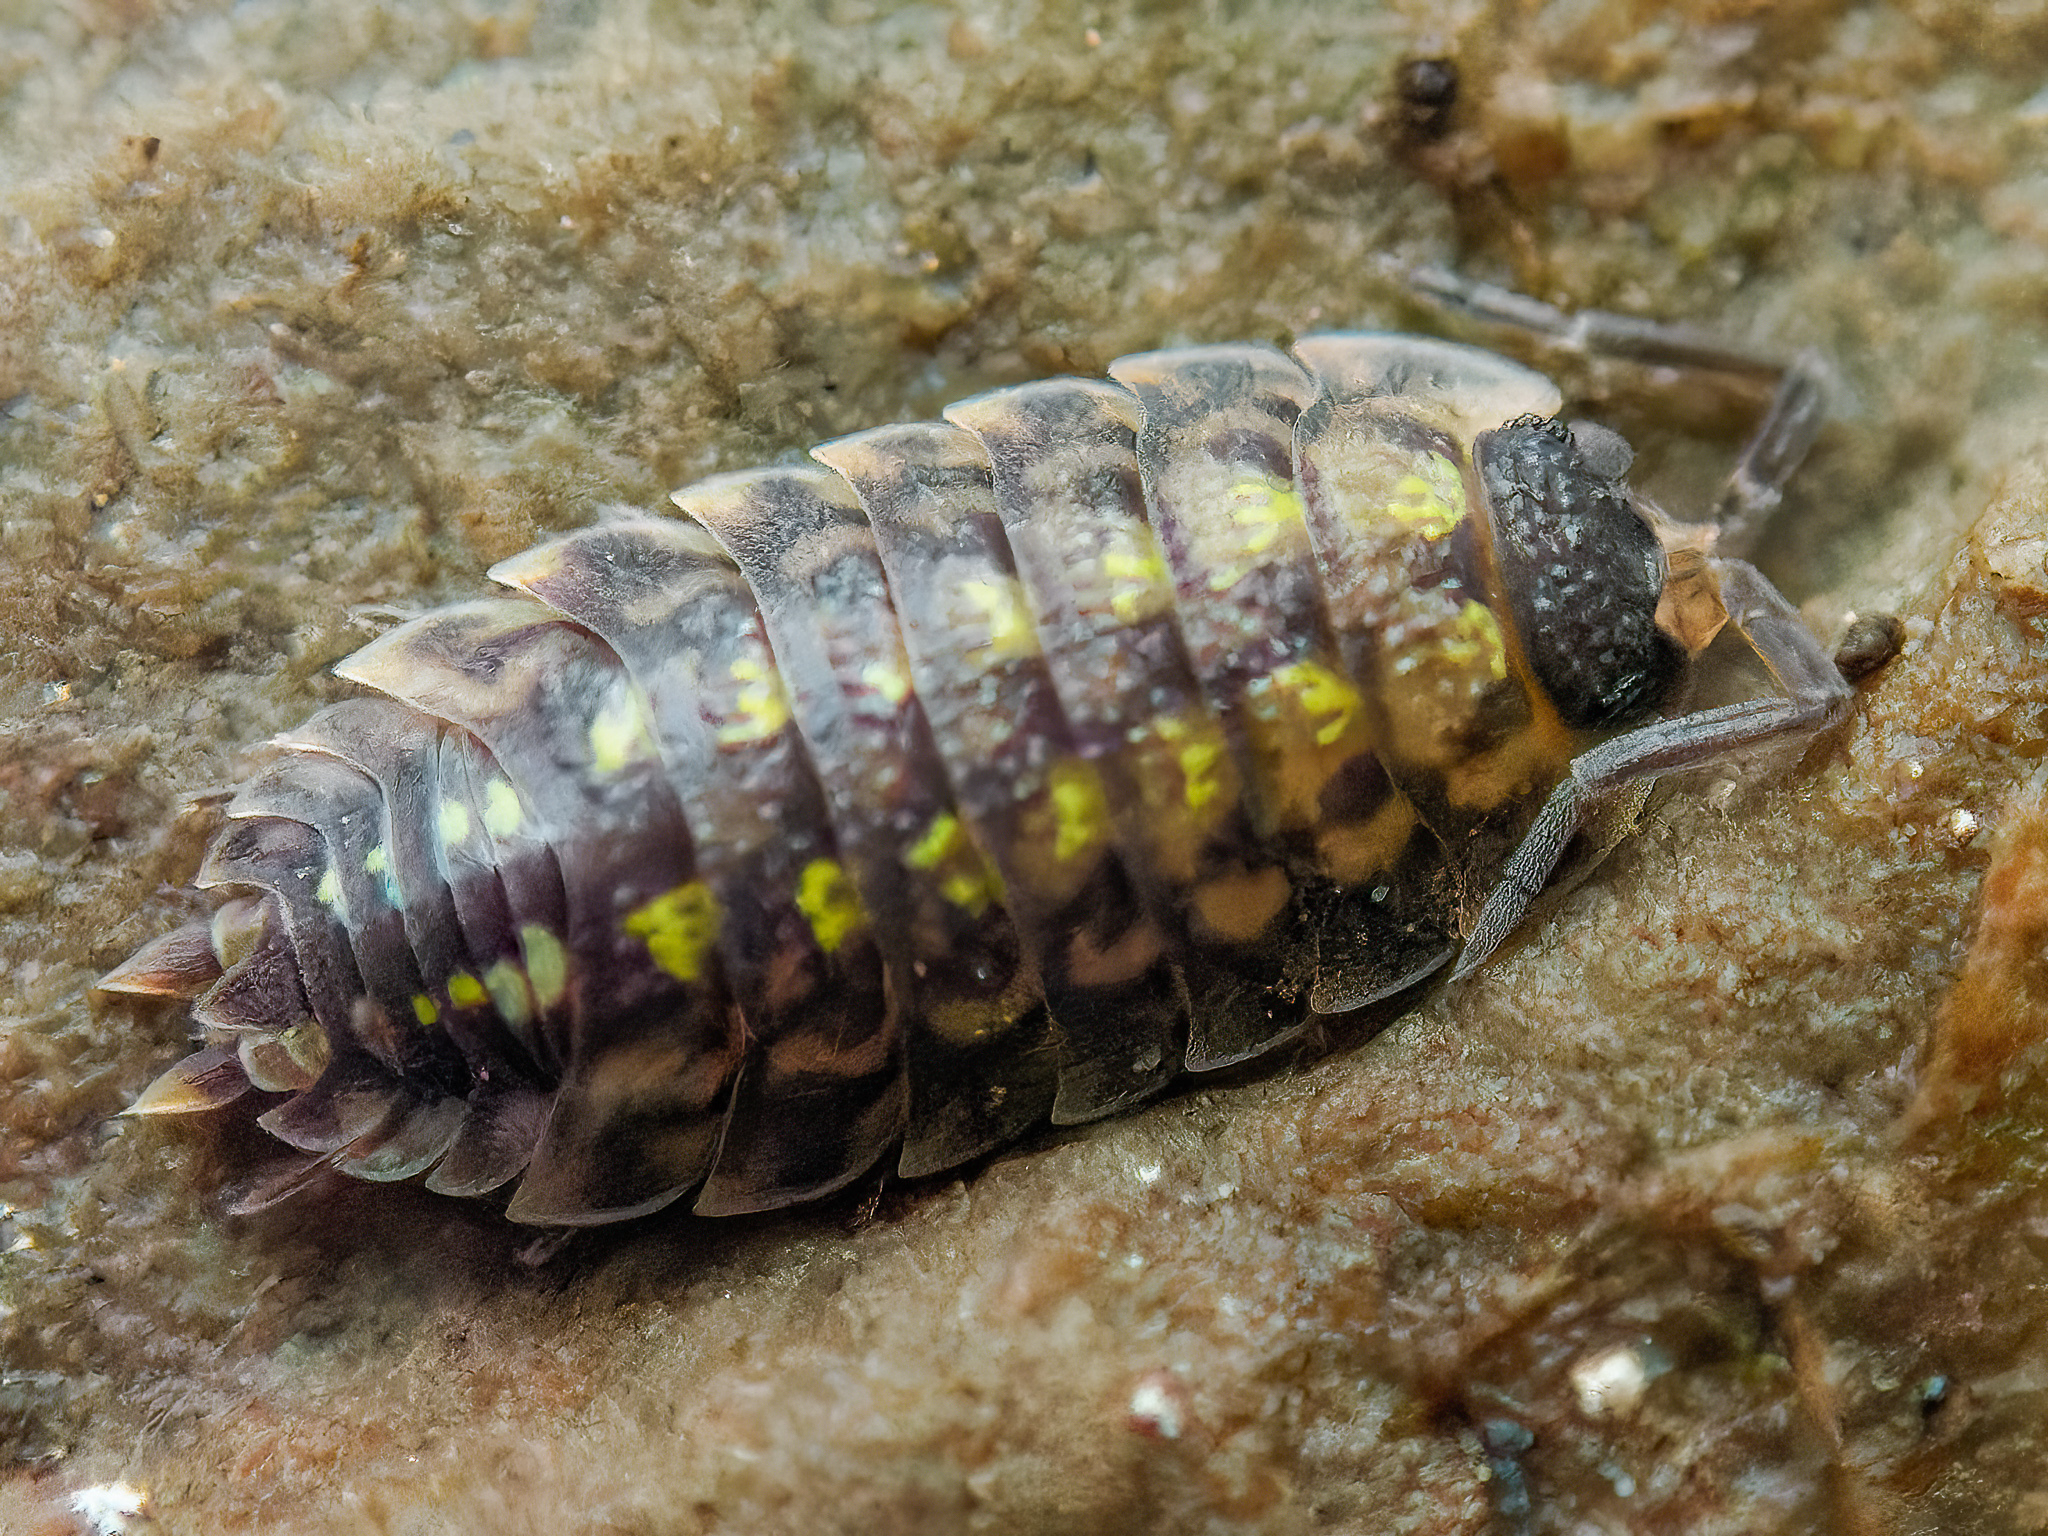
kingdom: Animalia
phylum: Arthropoda
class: Malacostraca
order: Isopoda
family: Porcellionidae
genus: Porcellio
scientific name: Porcellio spinicornis
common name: Painted woodlouse
